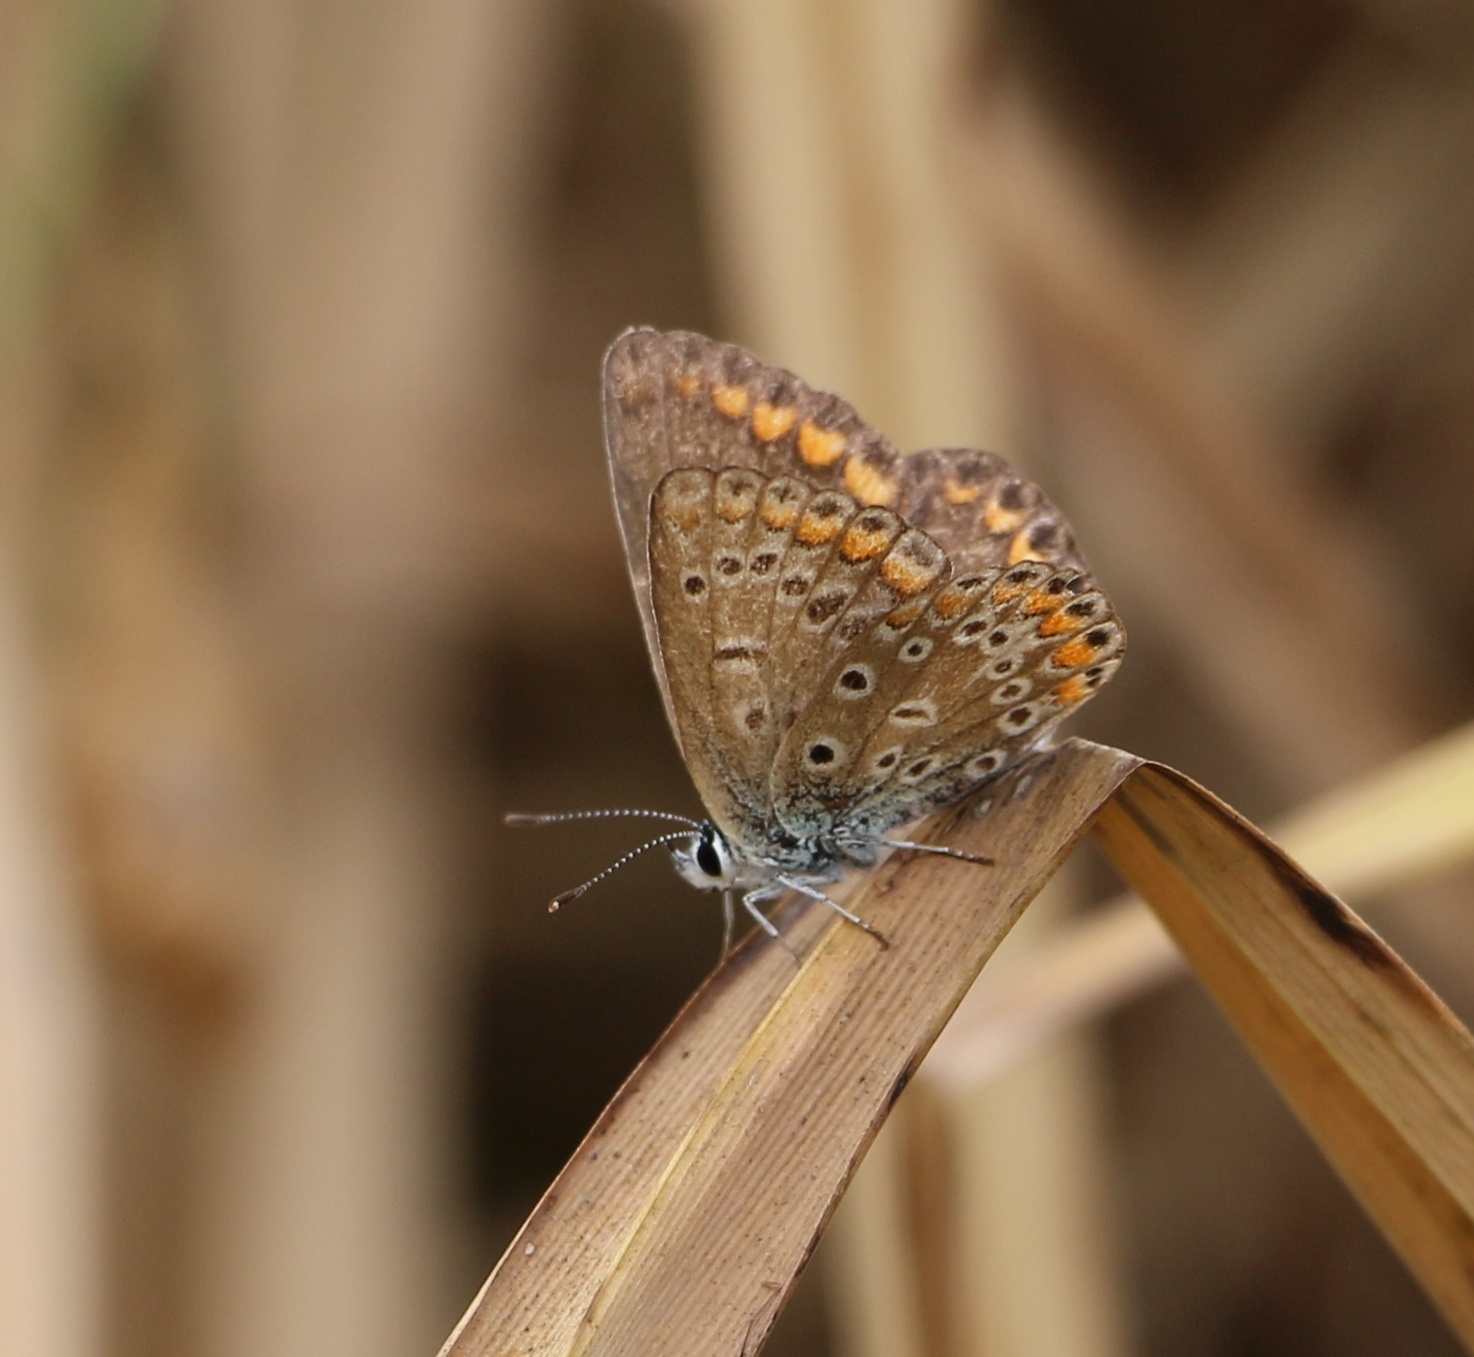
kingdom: Animalia
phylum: Arthropoda
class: Insecta
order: Lepidoptera
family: Lycaenidae
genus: Polyommatus
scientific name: Polyommatus icarus
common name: Common blue
